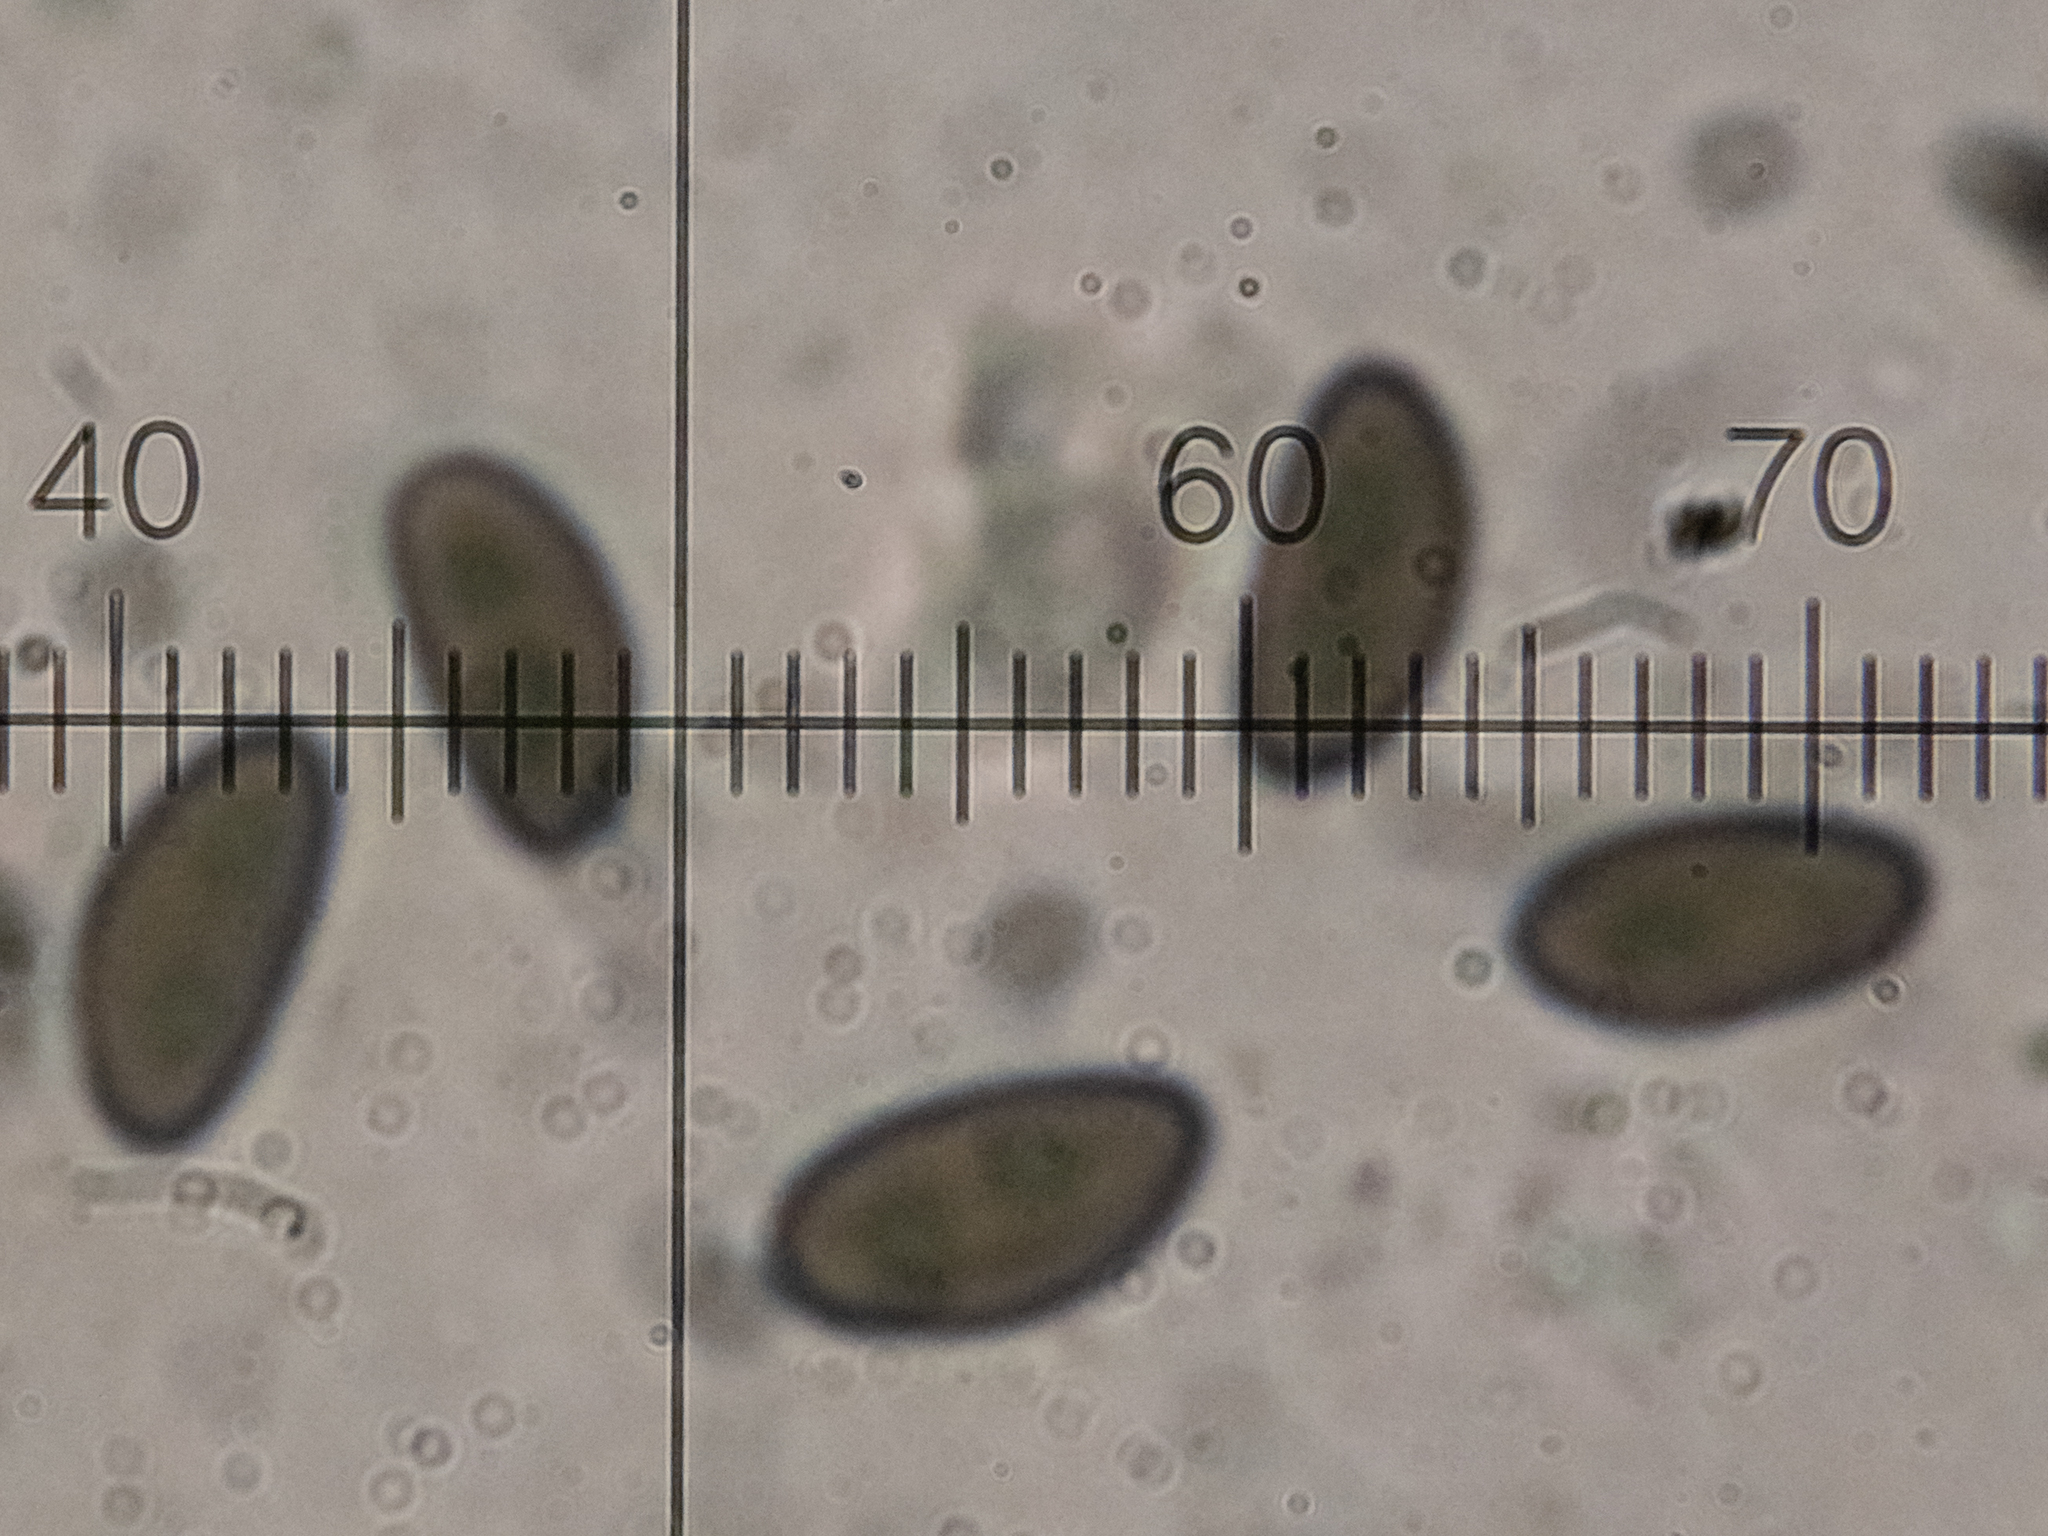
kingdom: Fungi
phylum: Ascomycota
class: Sordariomycetes
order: Xylariales
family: Hypoxylaceae
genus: Hypoxylon
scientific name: Hypoxylon howeanum
